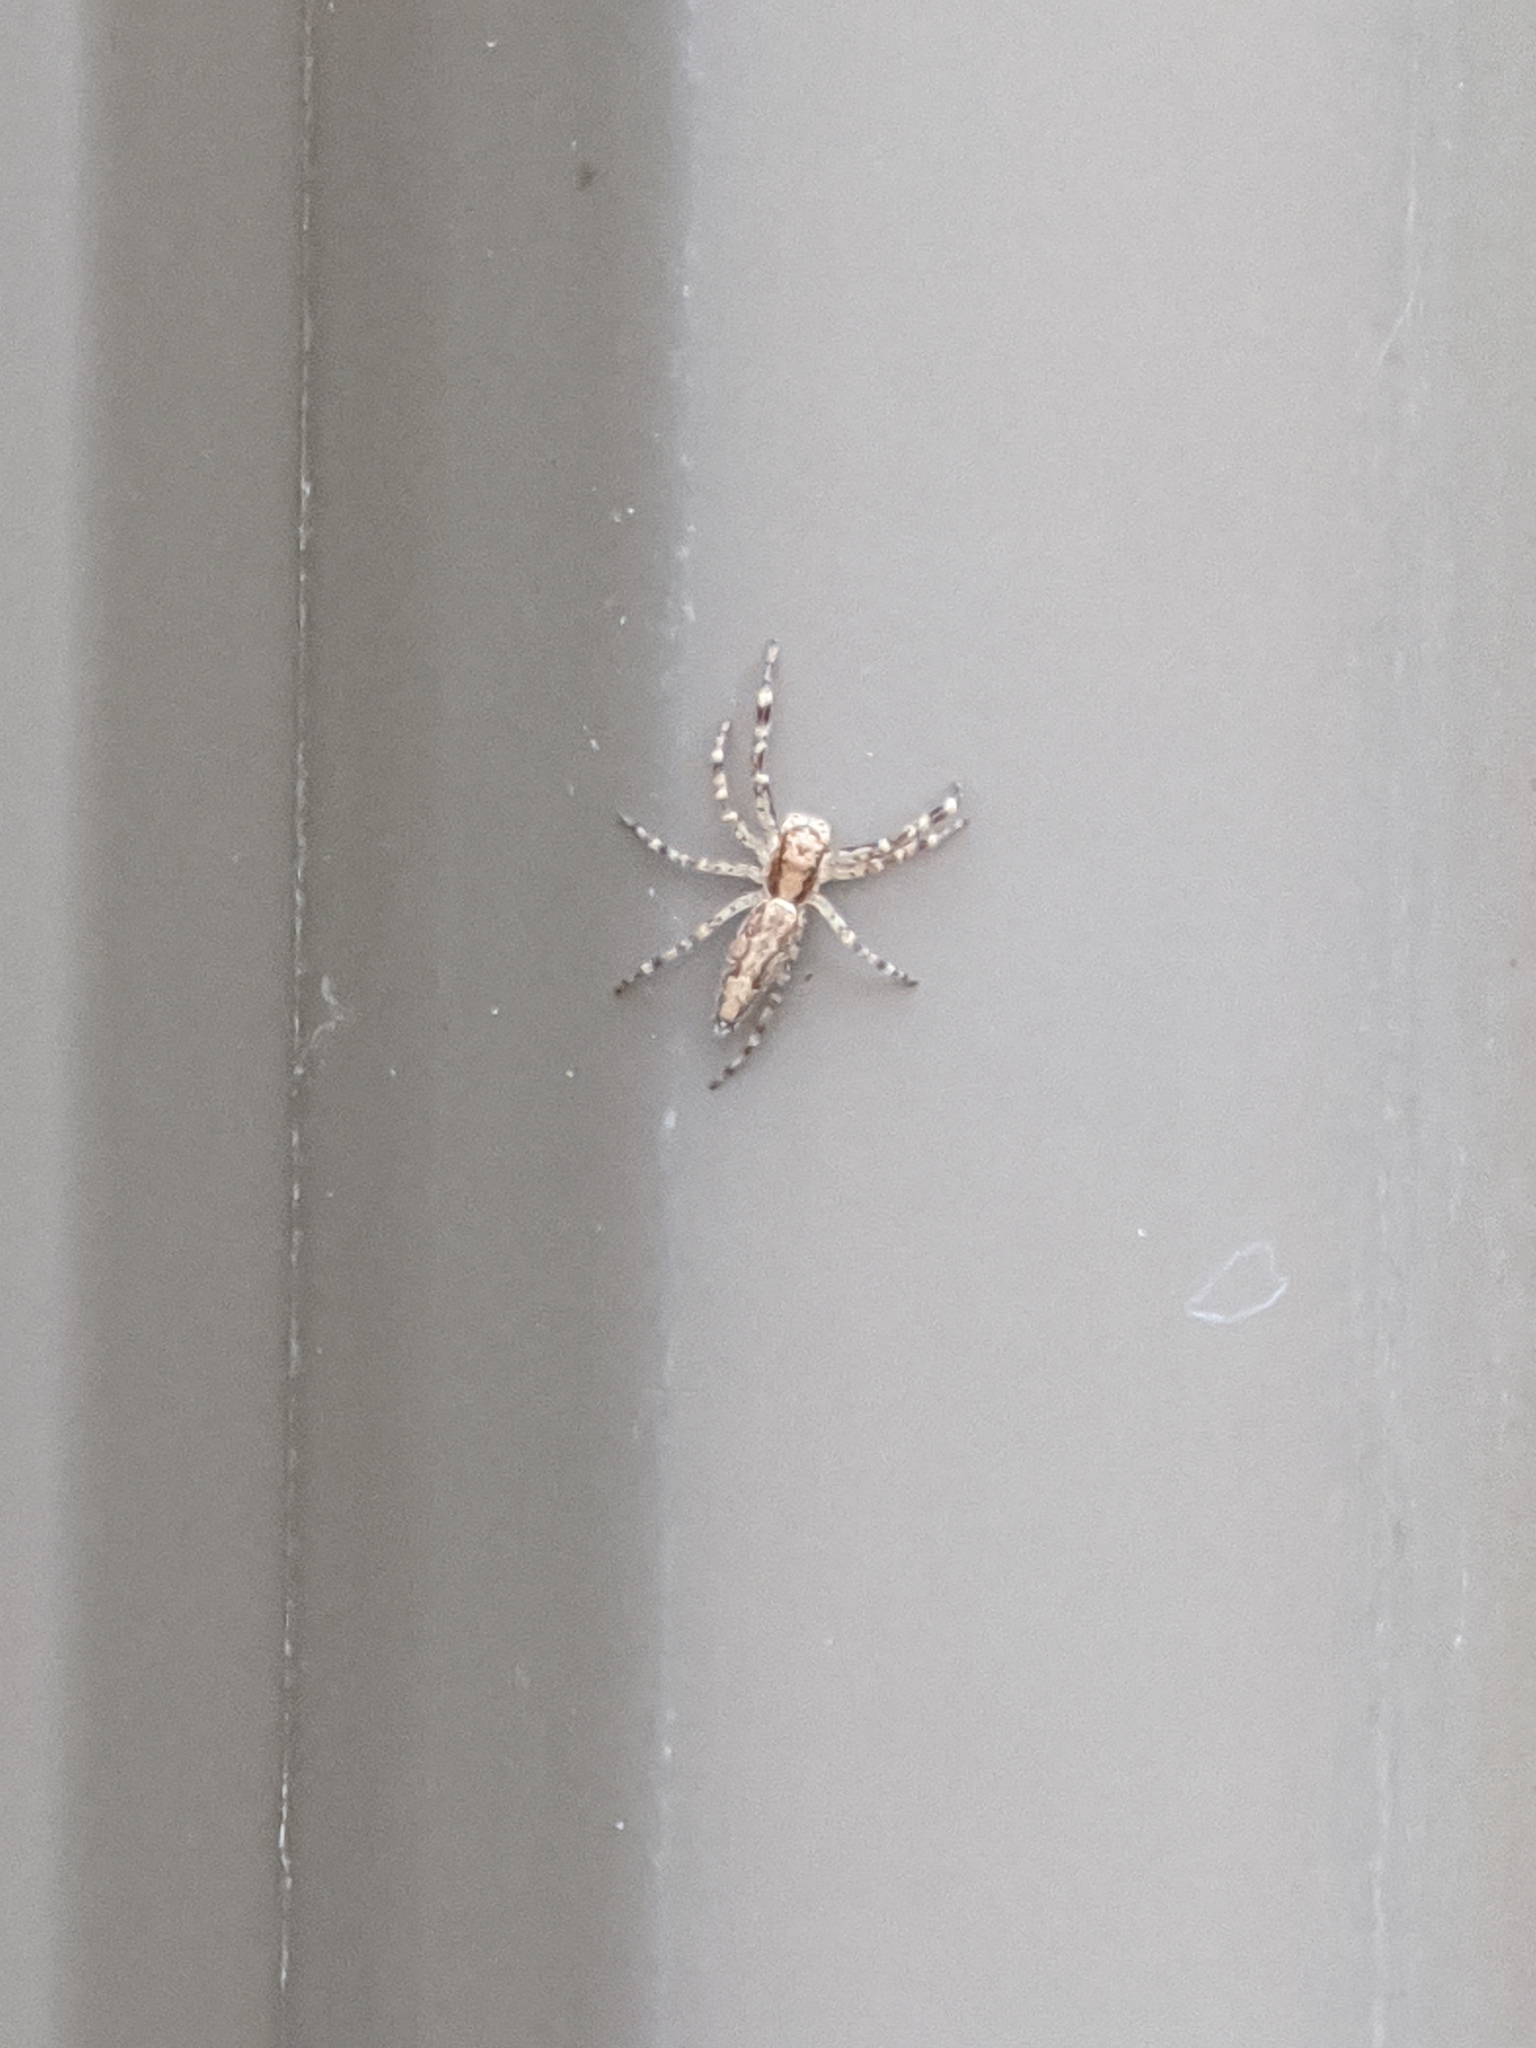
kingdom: Animalia
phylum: Arthropoda
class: Arachnida
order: Araneae
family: Salticidae
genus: Helpis
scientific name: Helpis minitabunda
